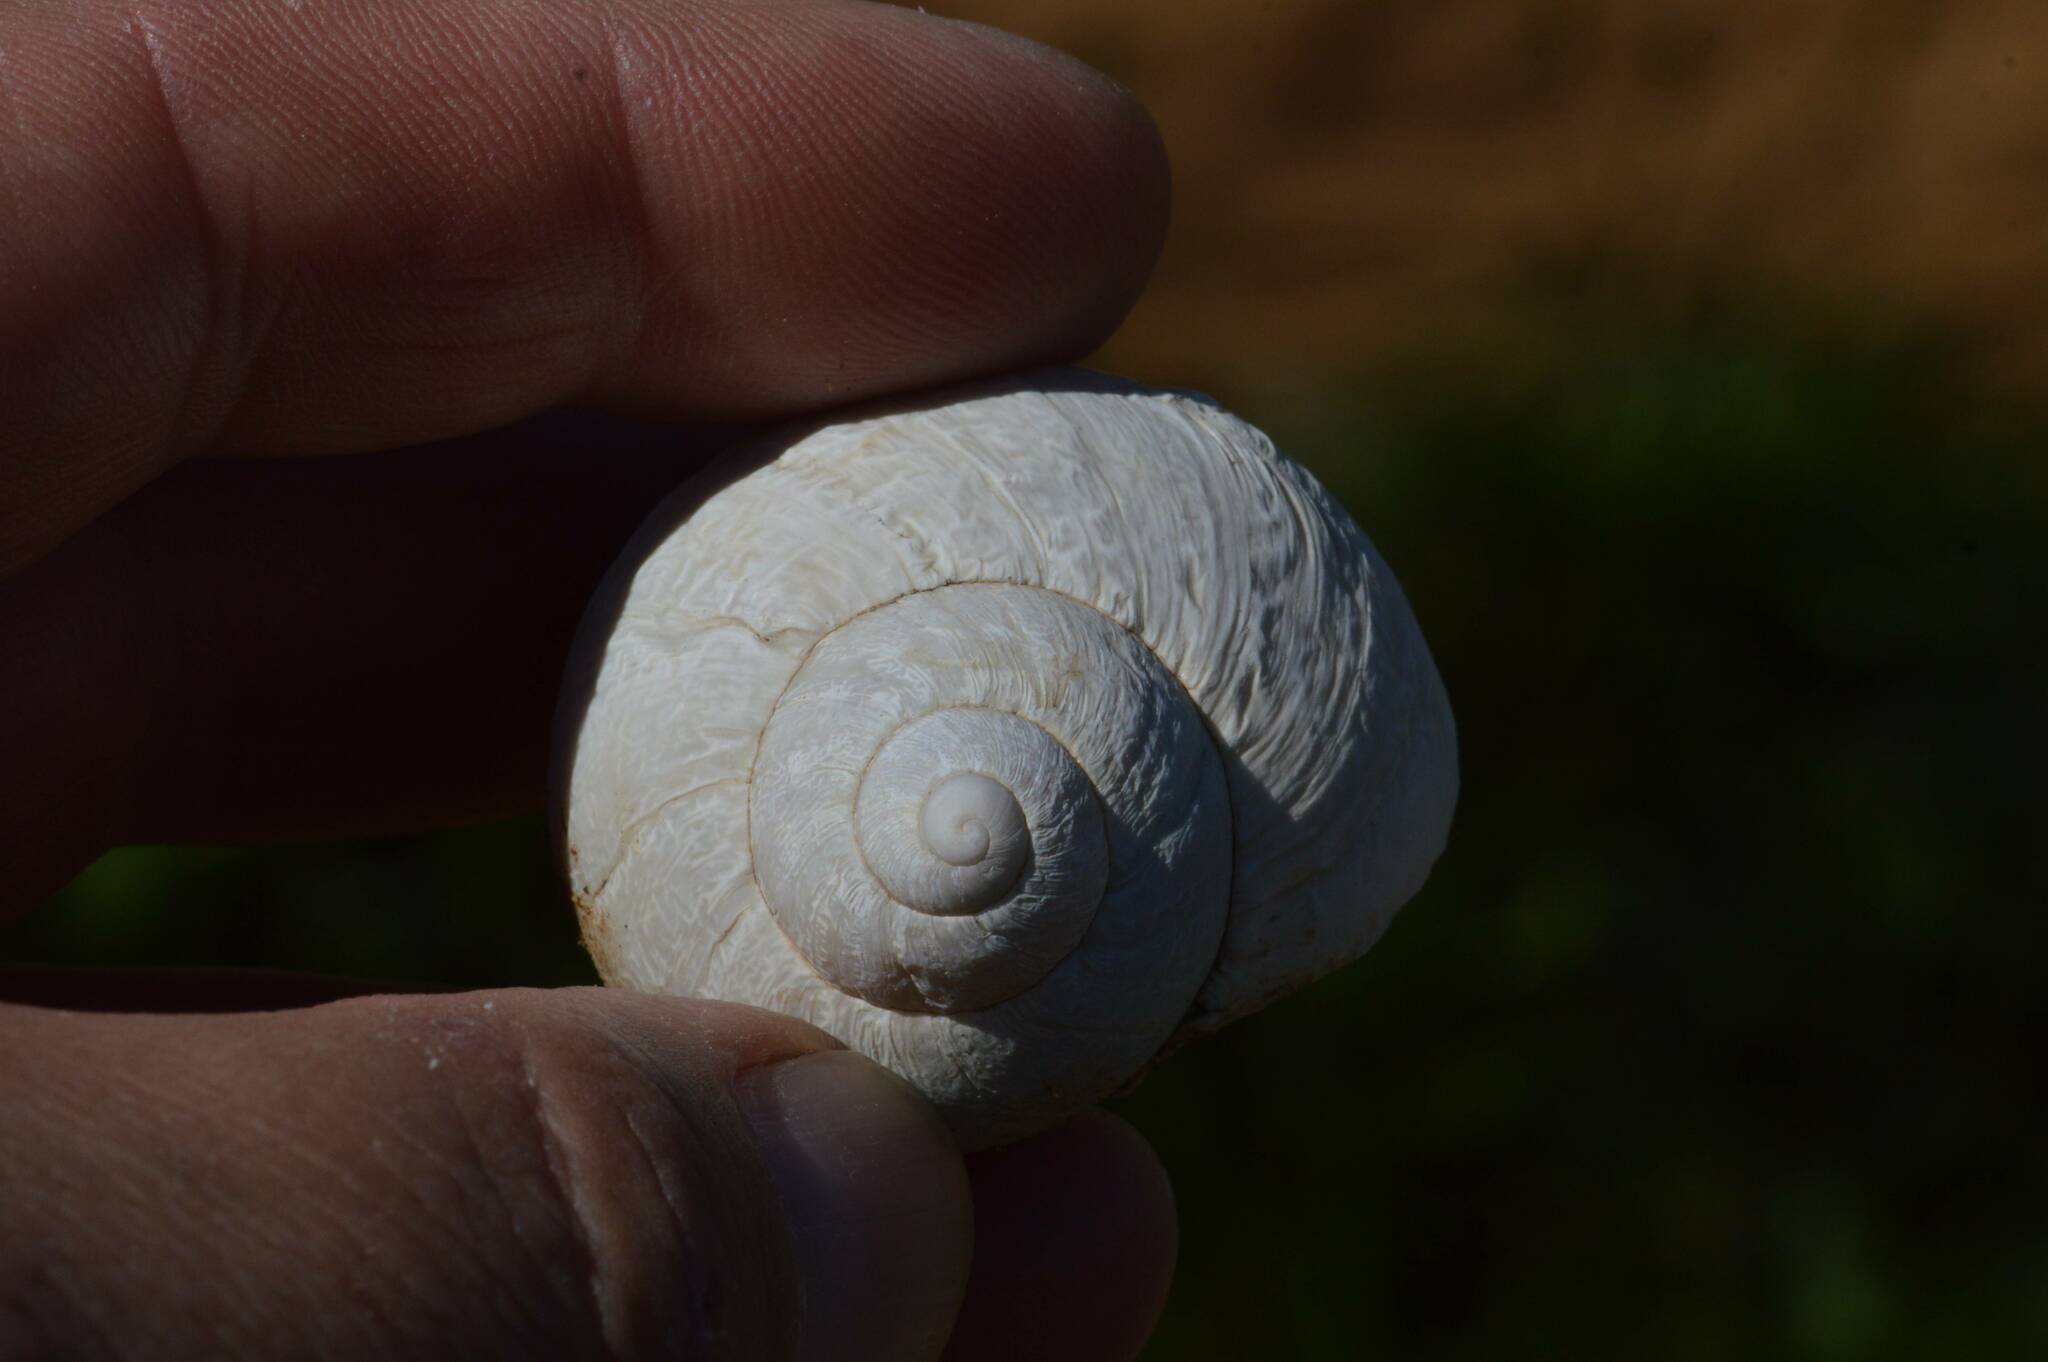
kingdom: Animalia
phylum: Mollusca
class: Gastropoda
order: Stylommatophora
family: Helicidae
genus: Cornu
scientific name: Cornu aspersum
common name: Brown garden snail
